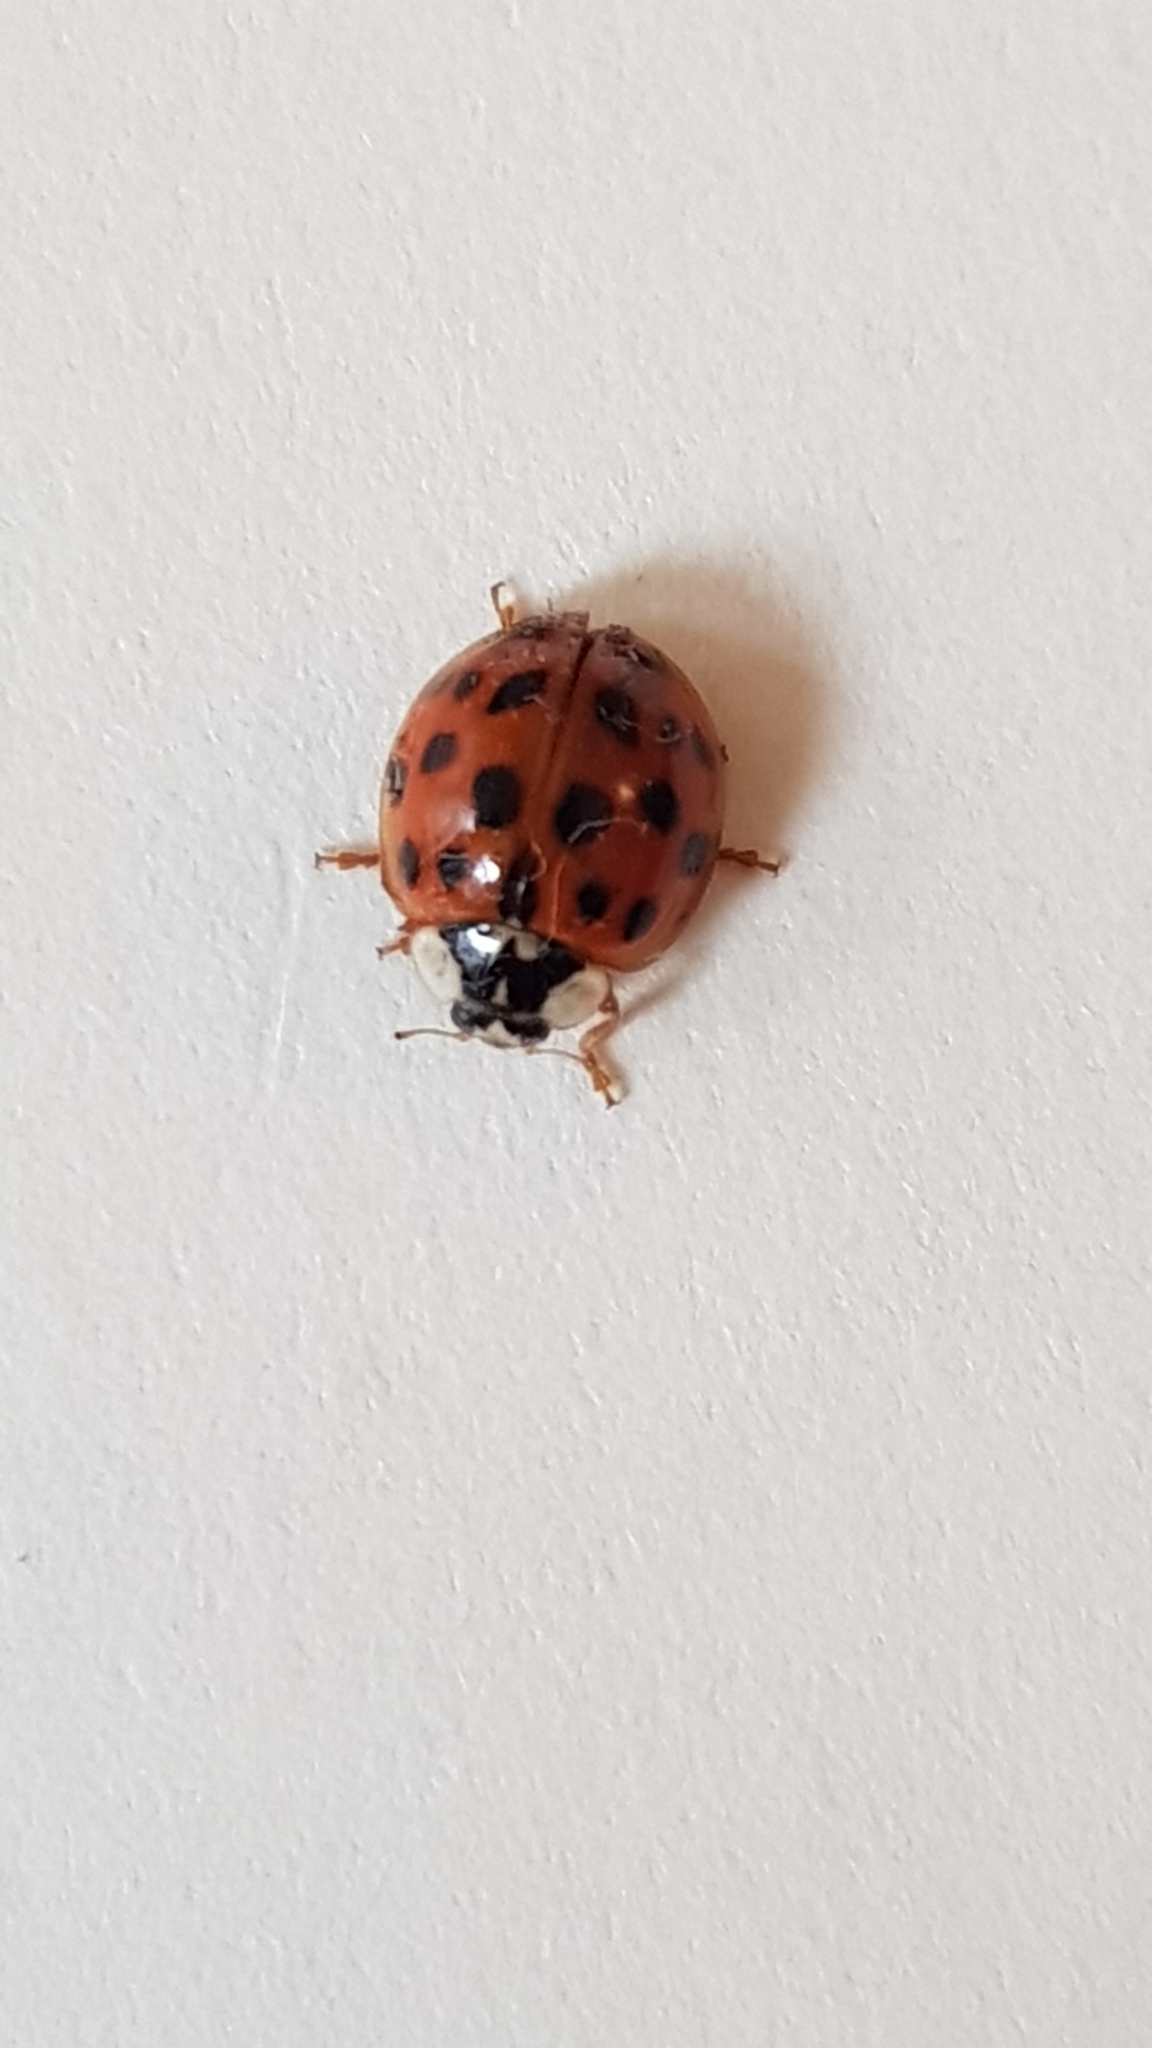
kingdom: Animalia
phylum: Arthropoda
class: Insecta
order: Coleoptera
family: Coccinellidae
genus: Harmonia
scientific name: Harmonia axyridis
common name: Harlequin ladybird
